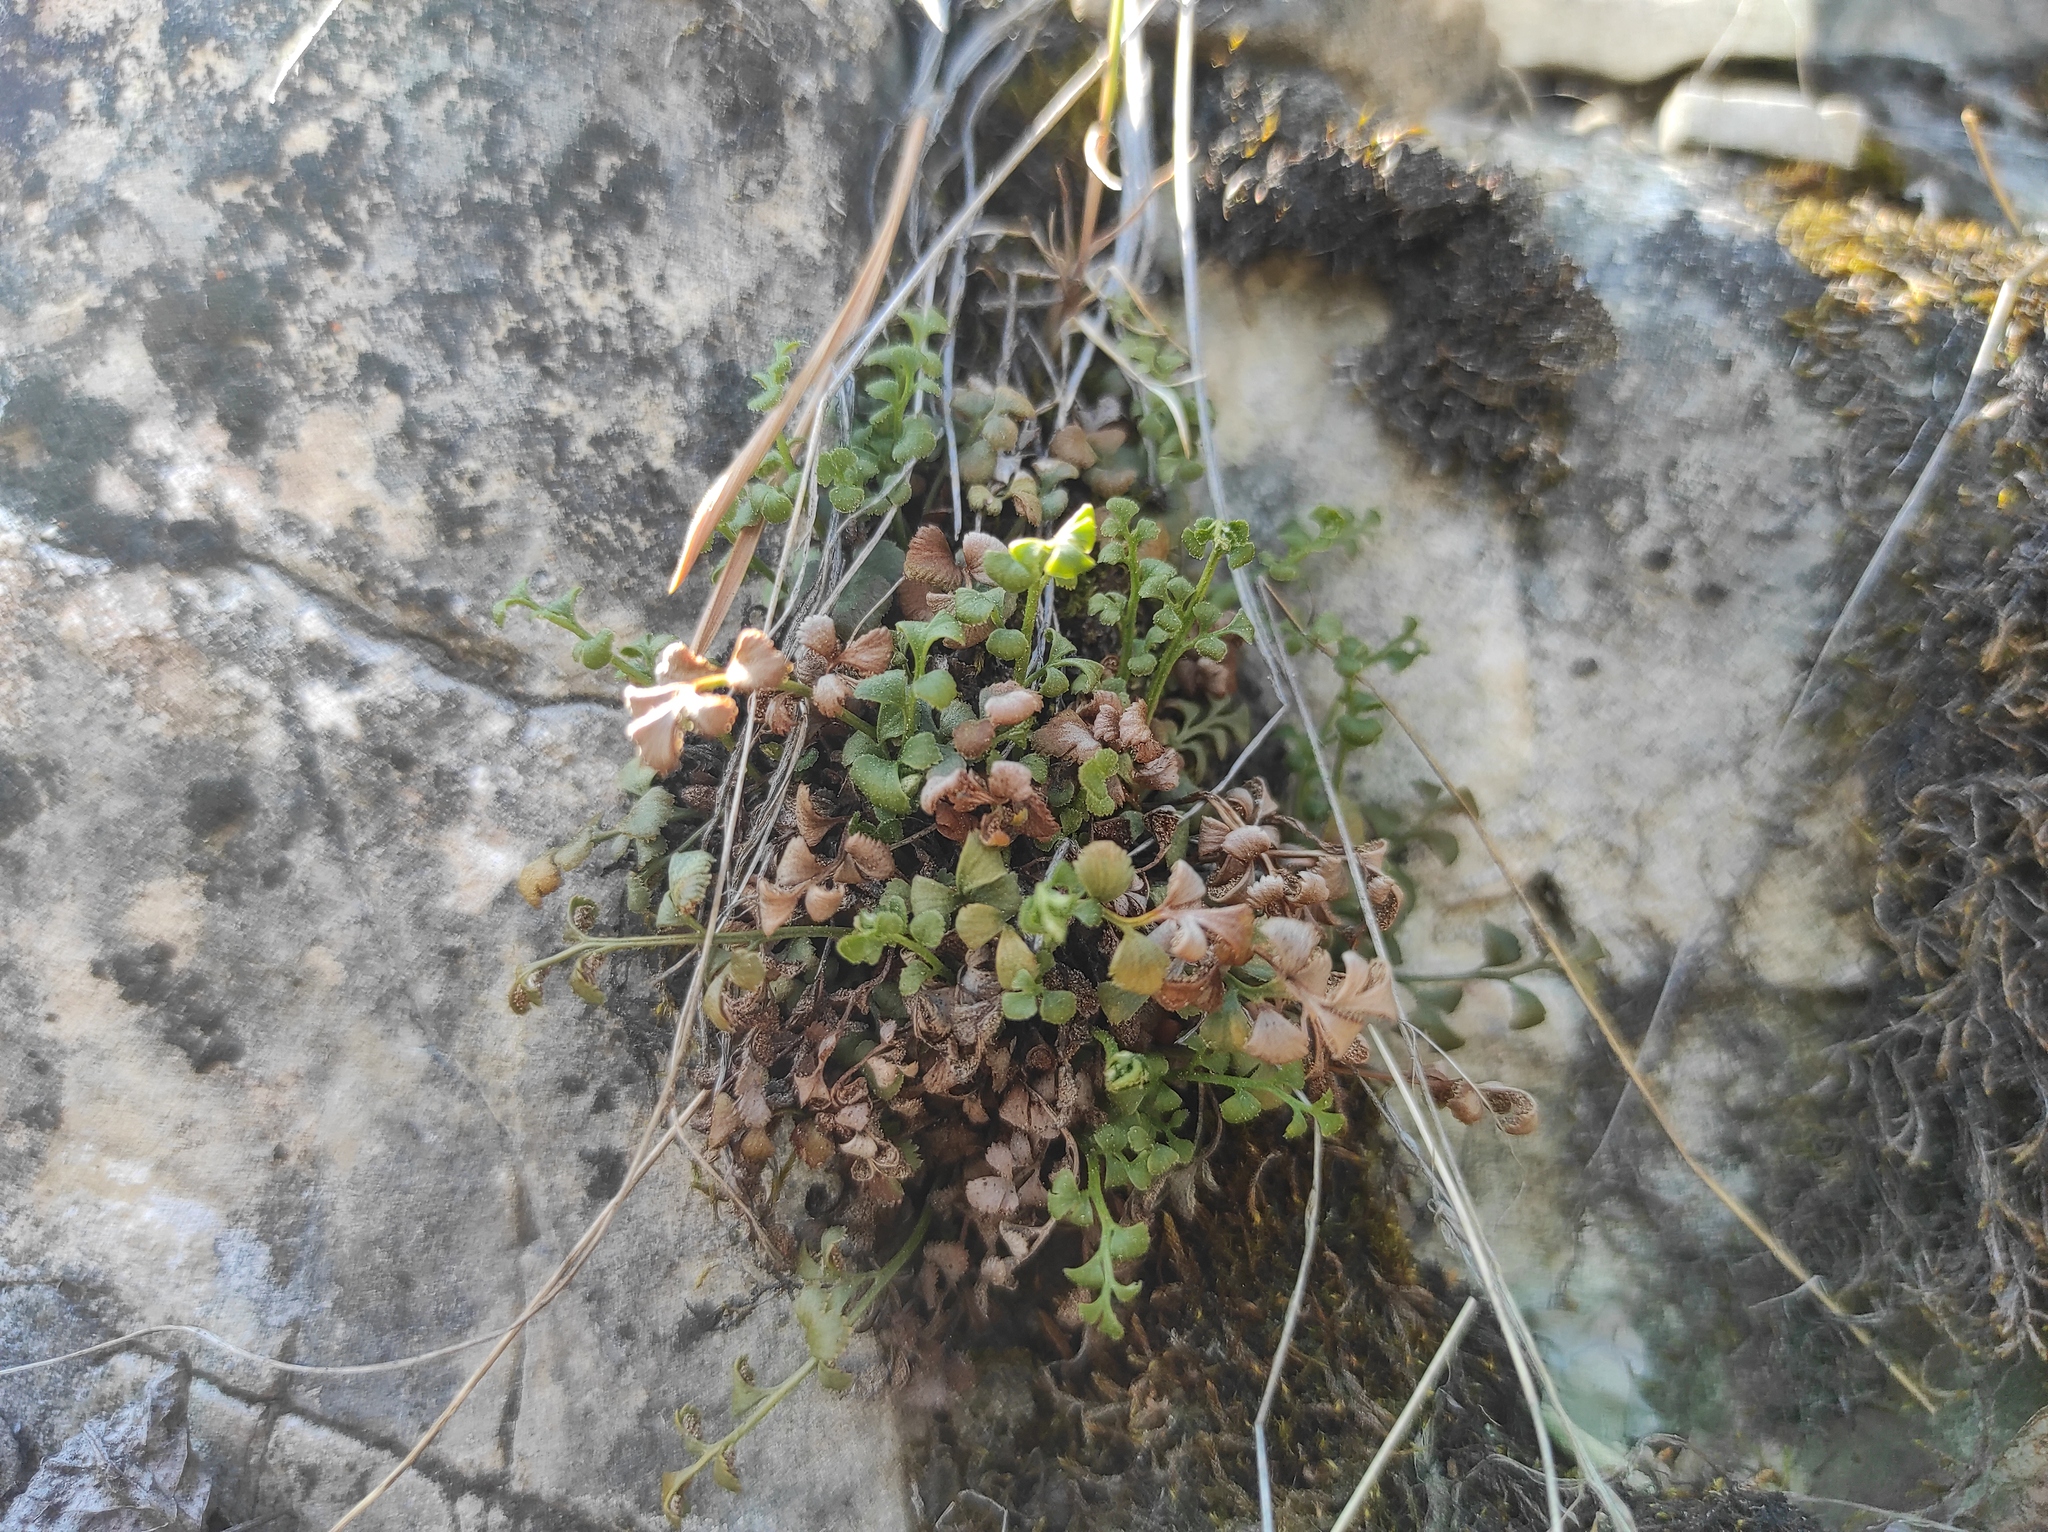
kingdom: Plantae
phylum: Tracheophyta
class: Polypodiopsida
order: Polypodiales
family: Aspleniaceae
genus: Asplenium
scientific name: Asplenium ruta-muraria
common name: Wall-rue
